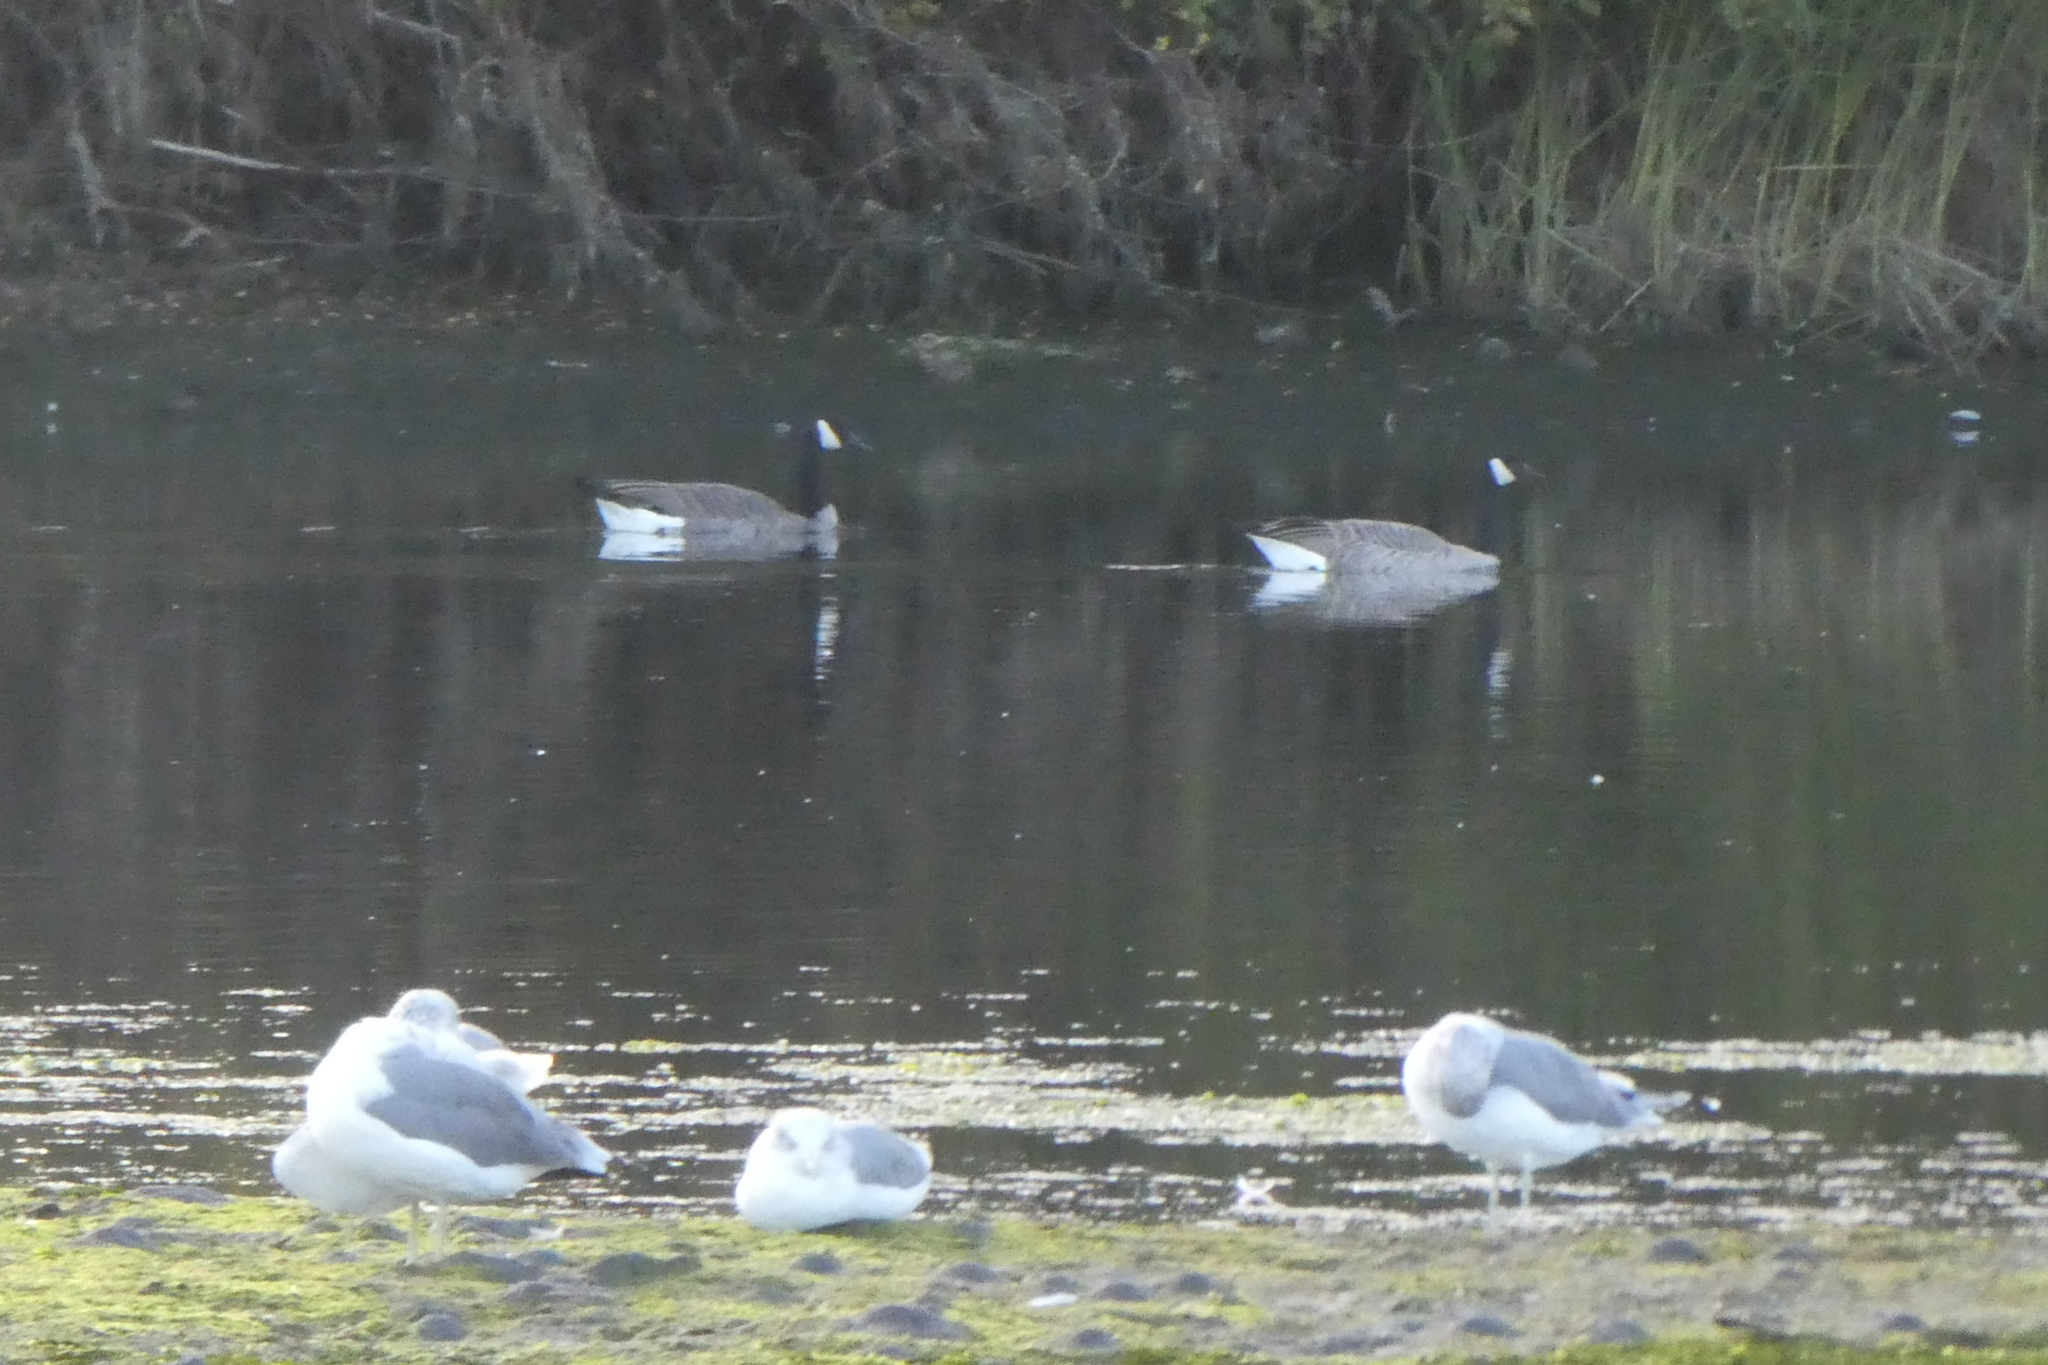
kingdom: Animalia
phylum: Chordata
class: Aves
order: Anseriformes
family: Anatidae
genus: Branta
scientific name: Branta canadensis
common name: Canada goose
